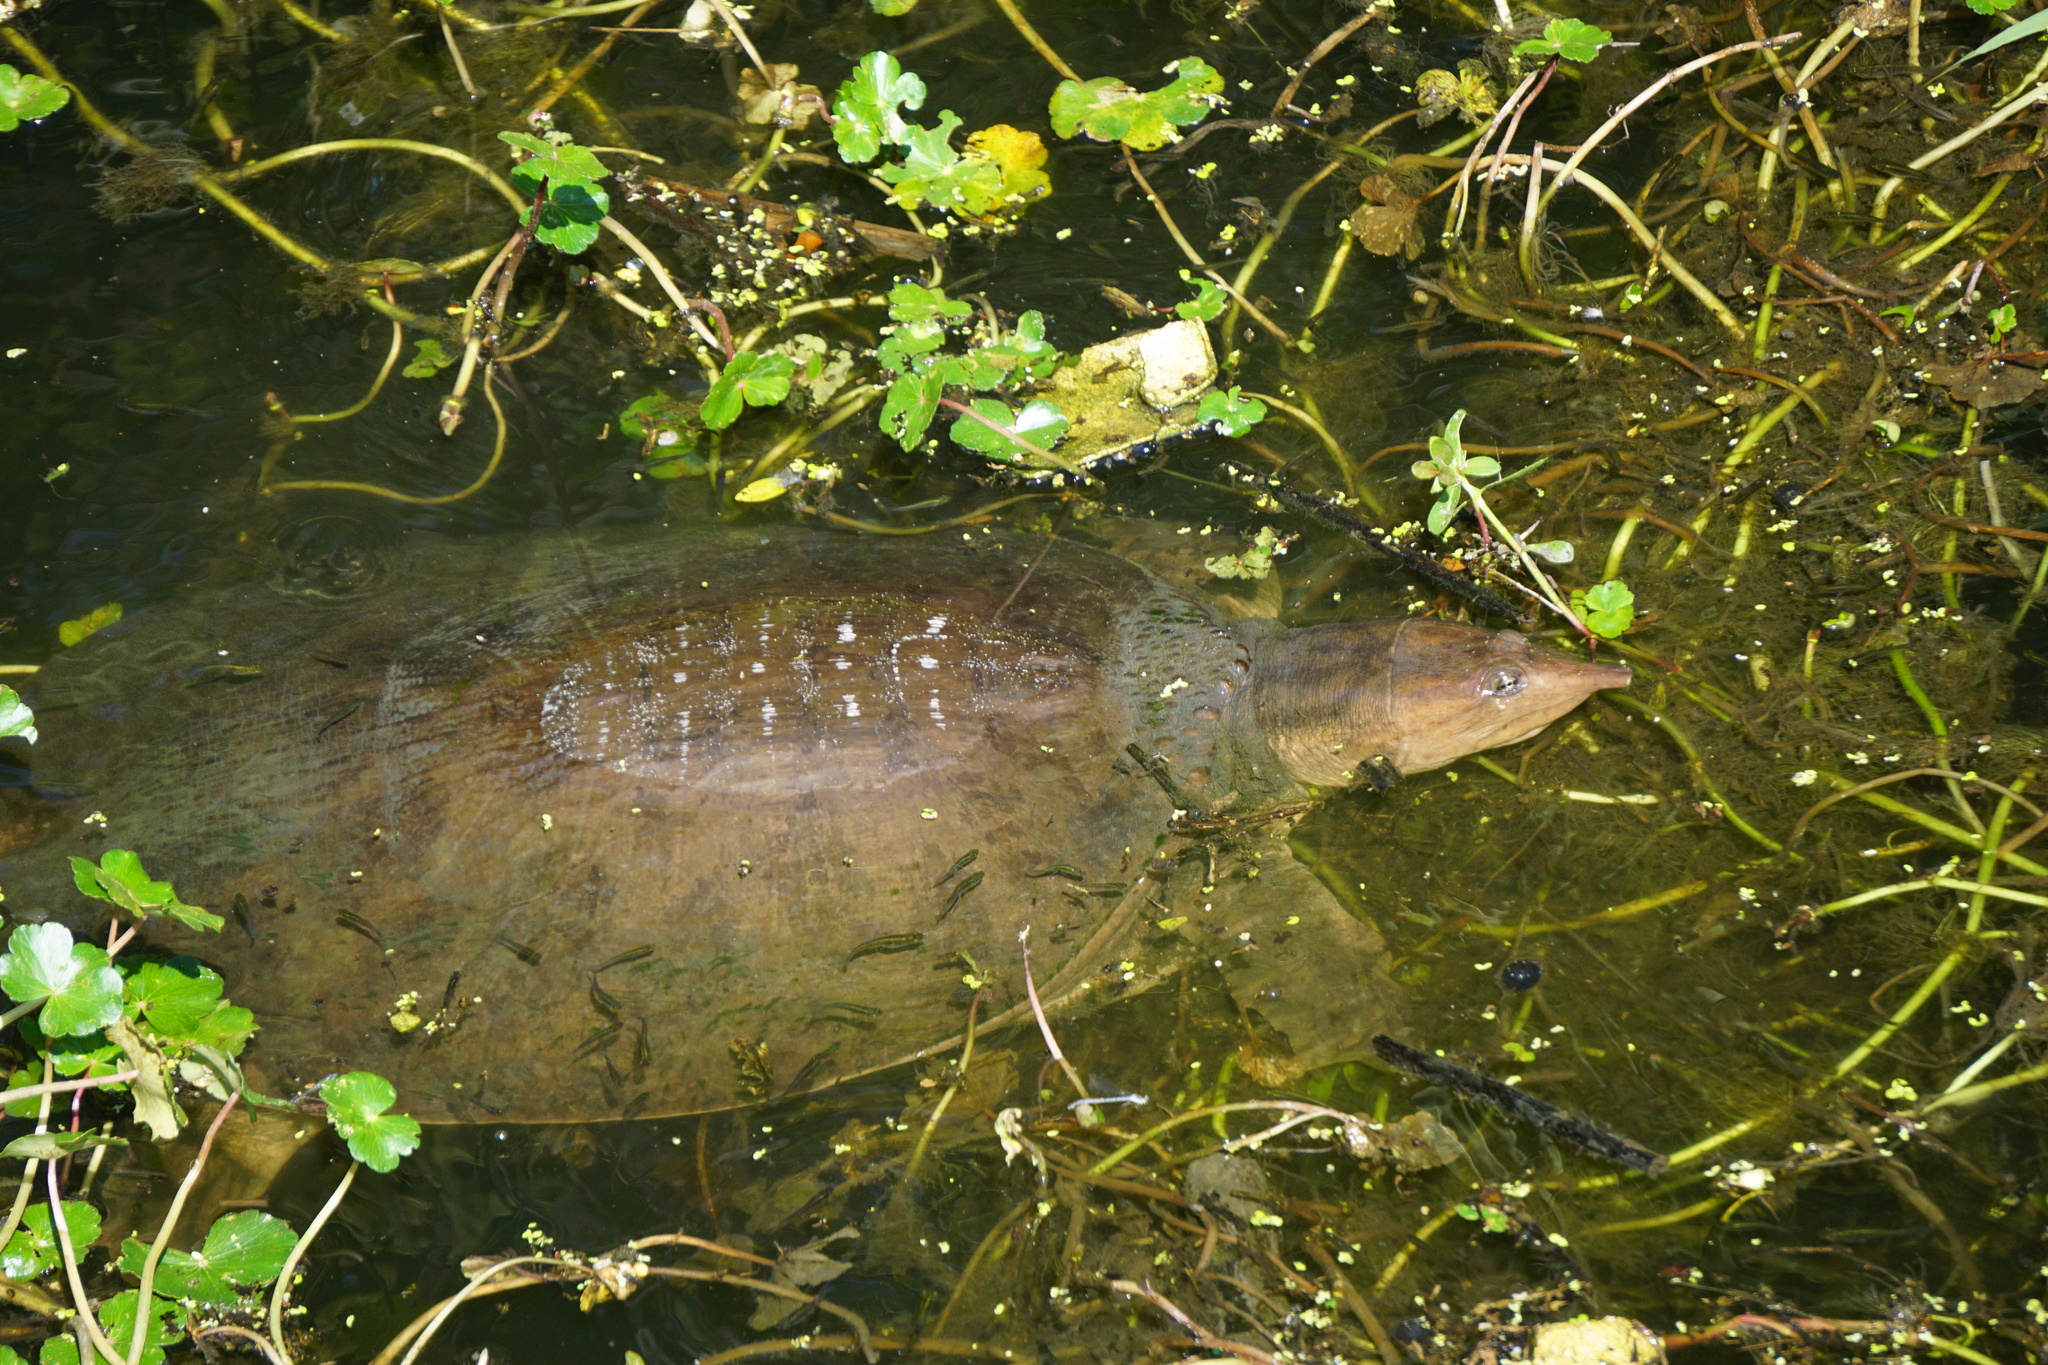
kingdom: Animalia
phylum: Chordata
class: Testudines
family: Trionychidae
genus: Apalone
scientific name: Apalone ferox
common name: Florida softshell turtle
